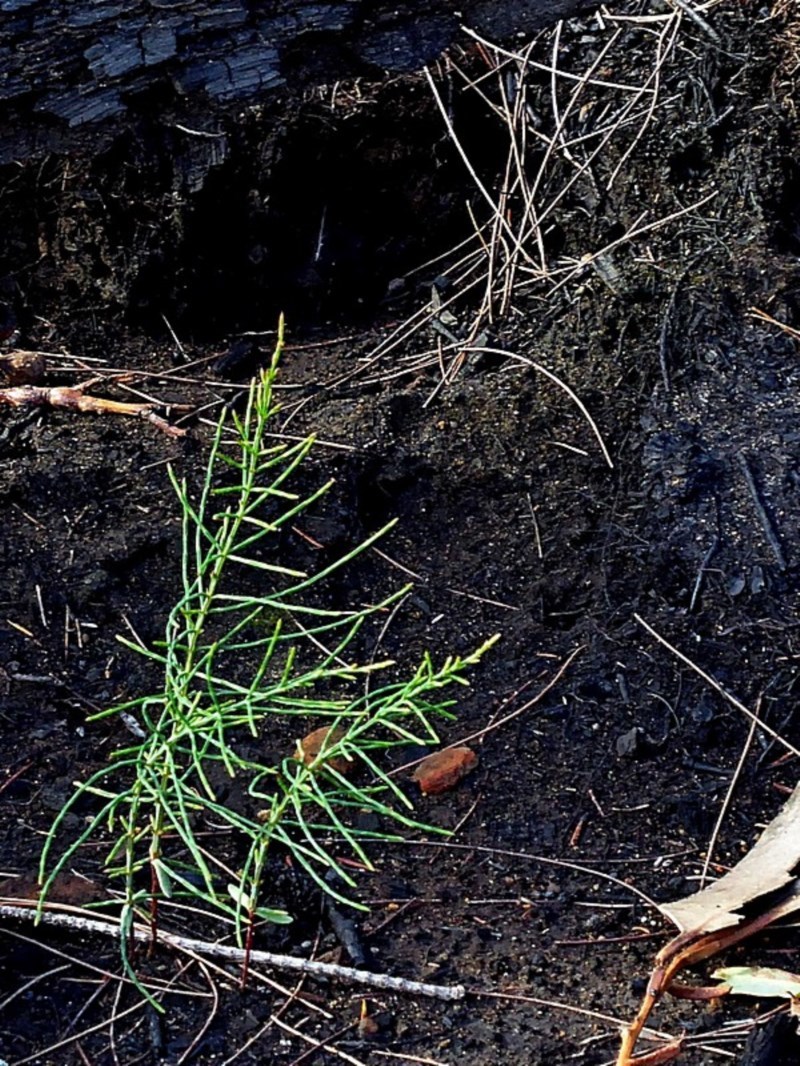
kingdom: Plantae
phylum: Tracheophyta
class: Magnoliopsida
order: Fagales
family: Casuarinaceae
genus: Allocasuarina
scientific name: Allocasuarina littoralis
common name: Black she-oak
